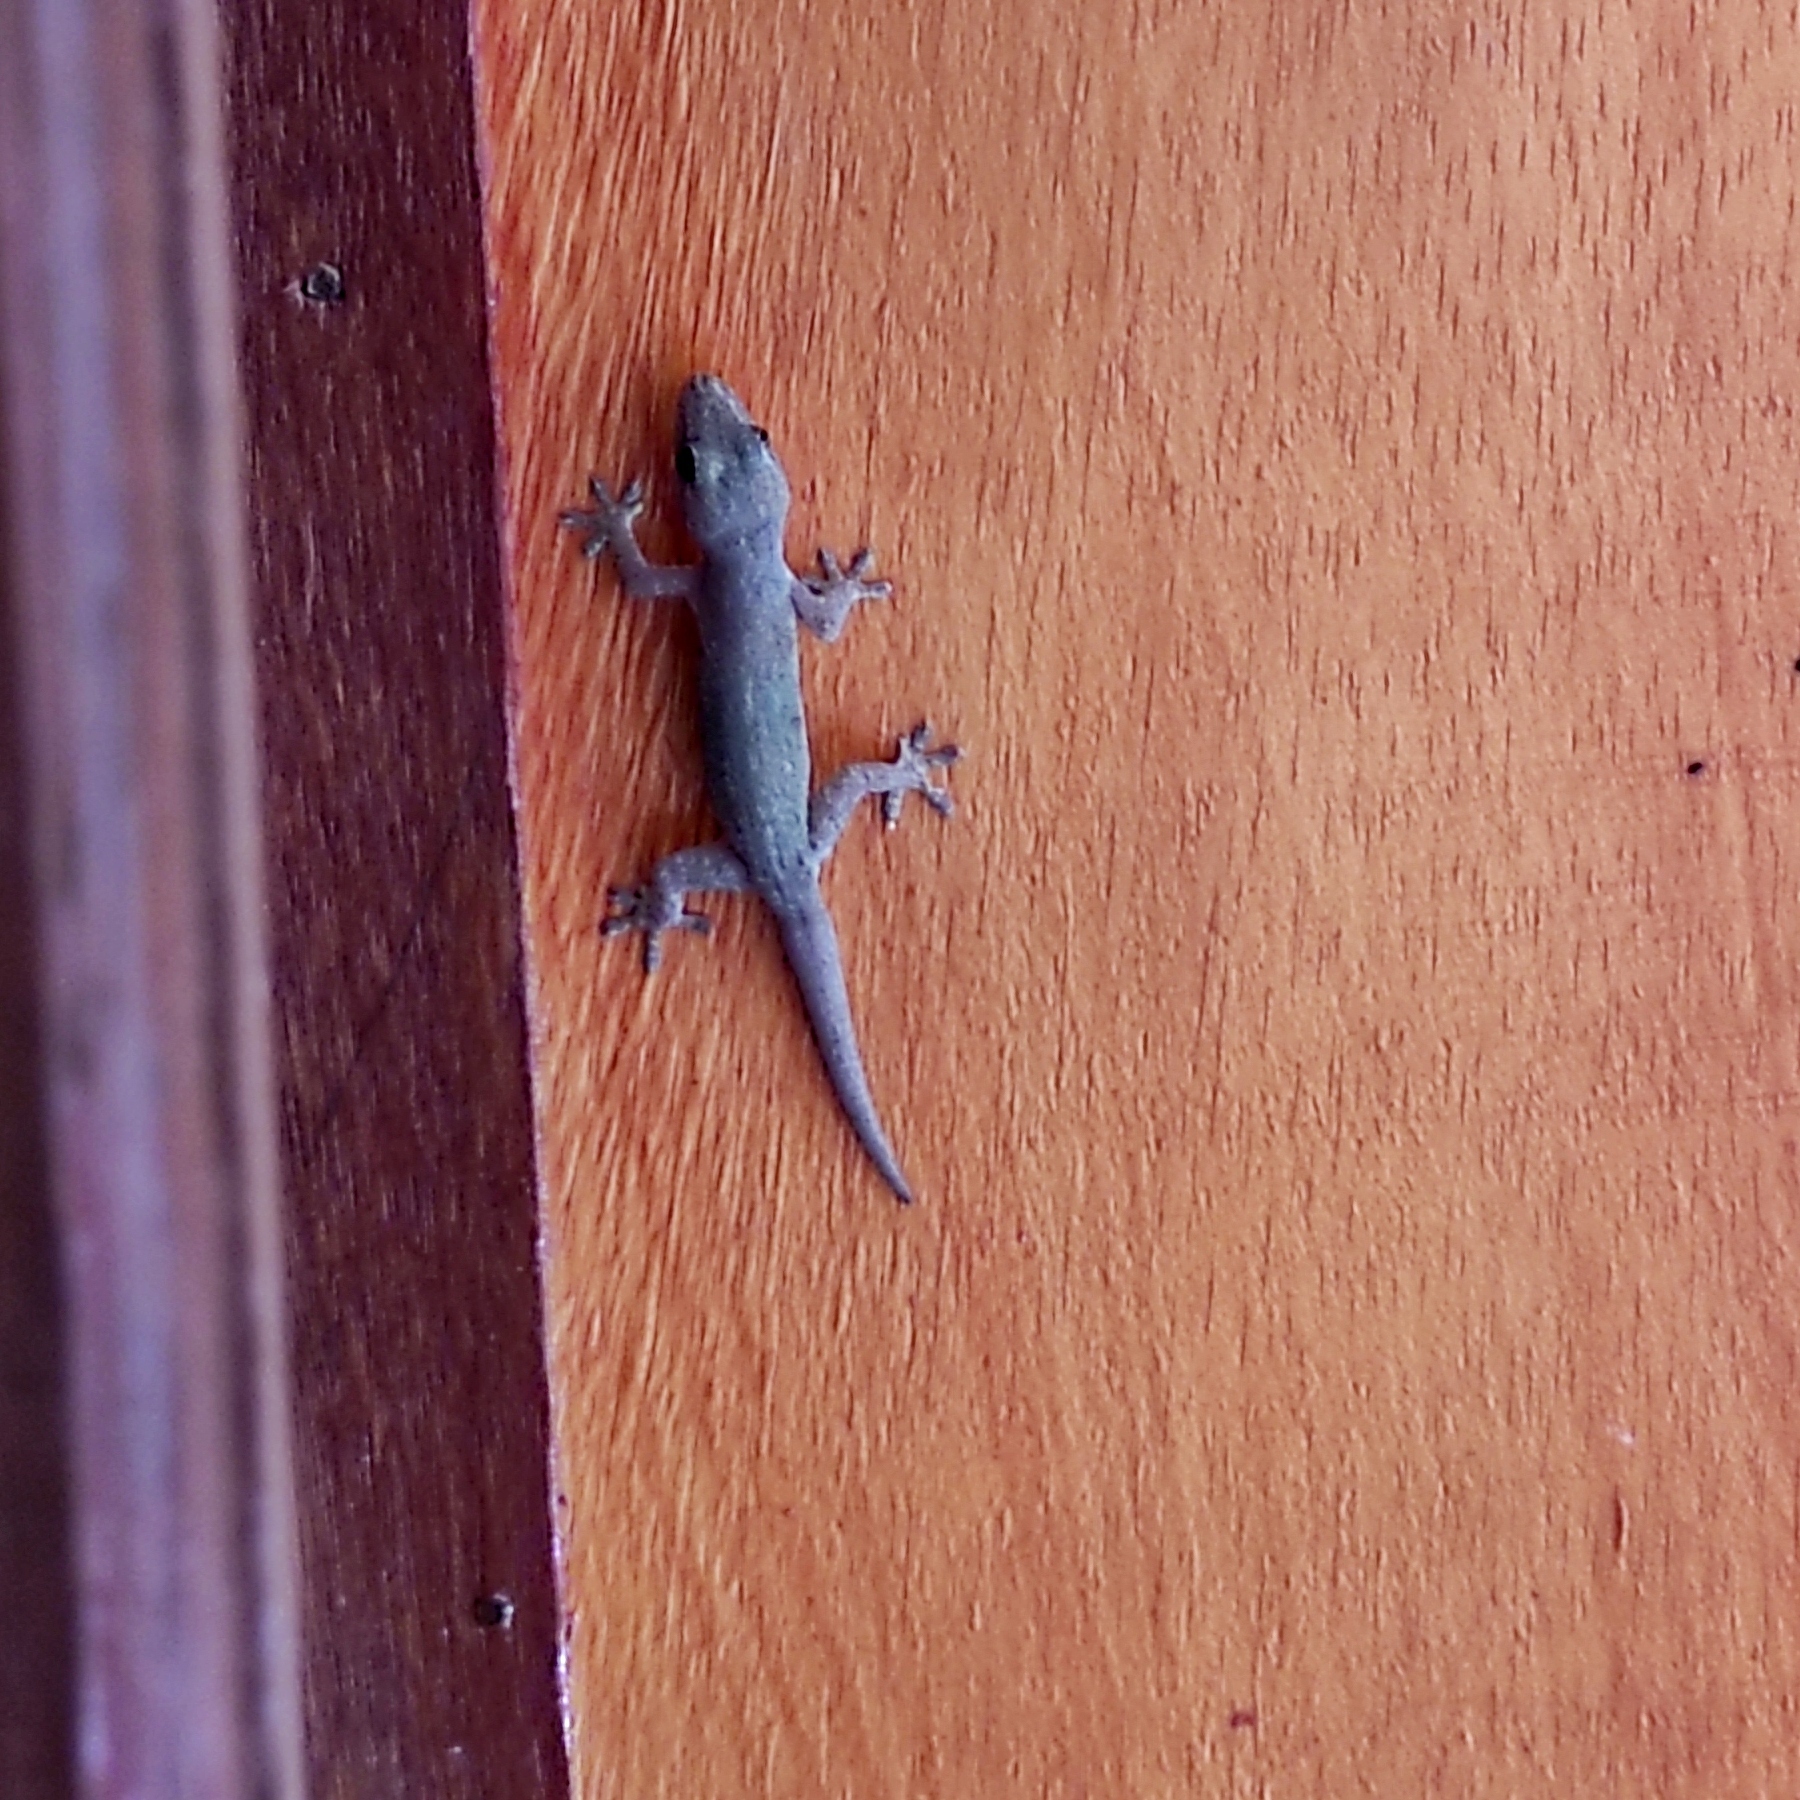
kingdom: Animalia
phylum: Chordata
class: Squamata
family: Gekkonidae
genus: Hemidactylus
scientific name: Hemidactylus frenatus
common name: Common house gecko
